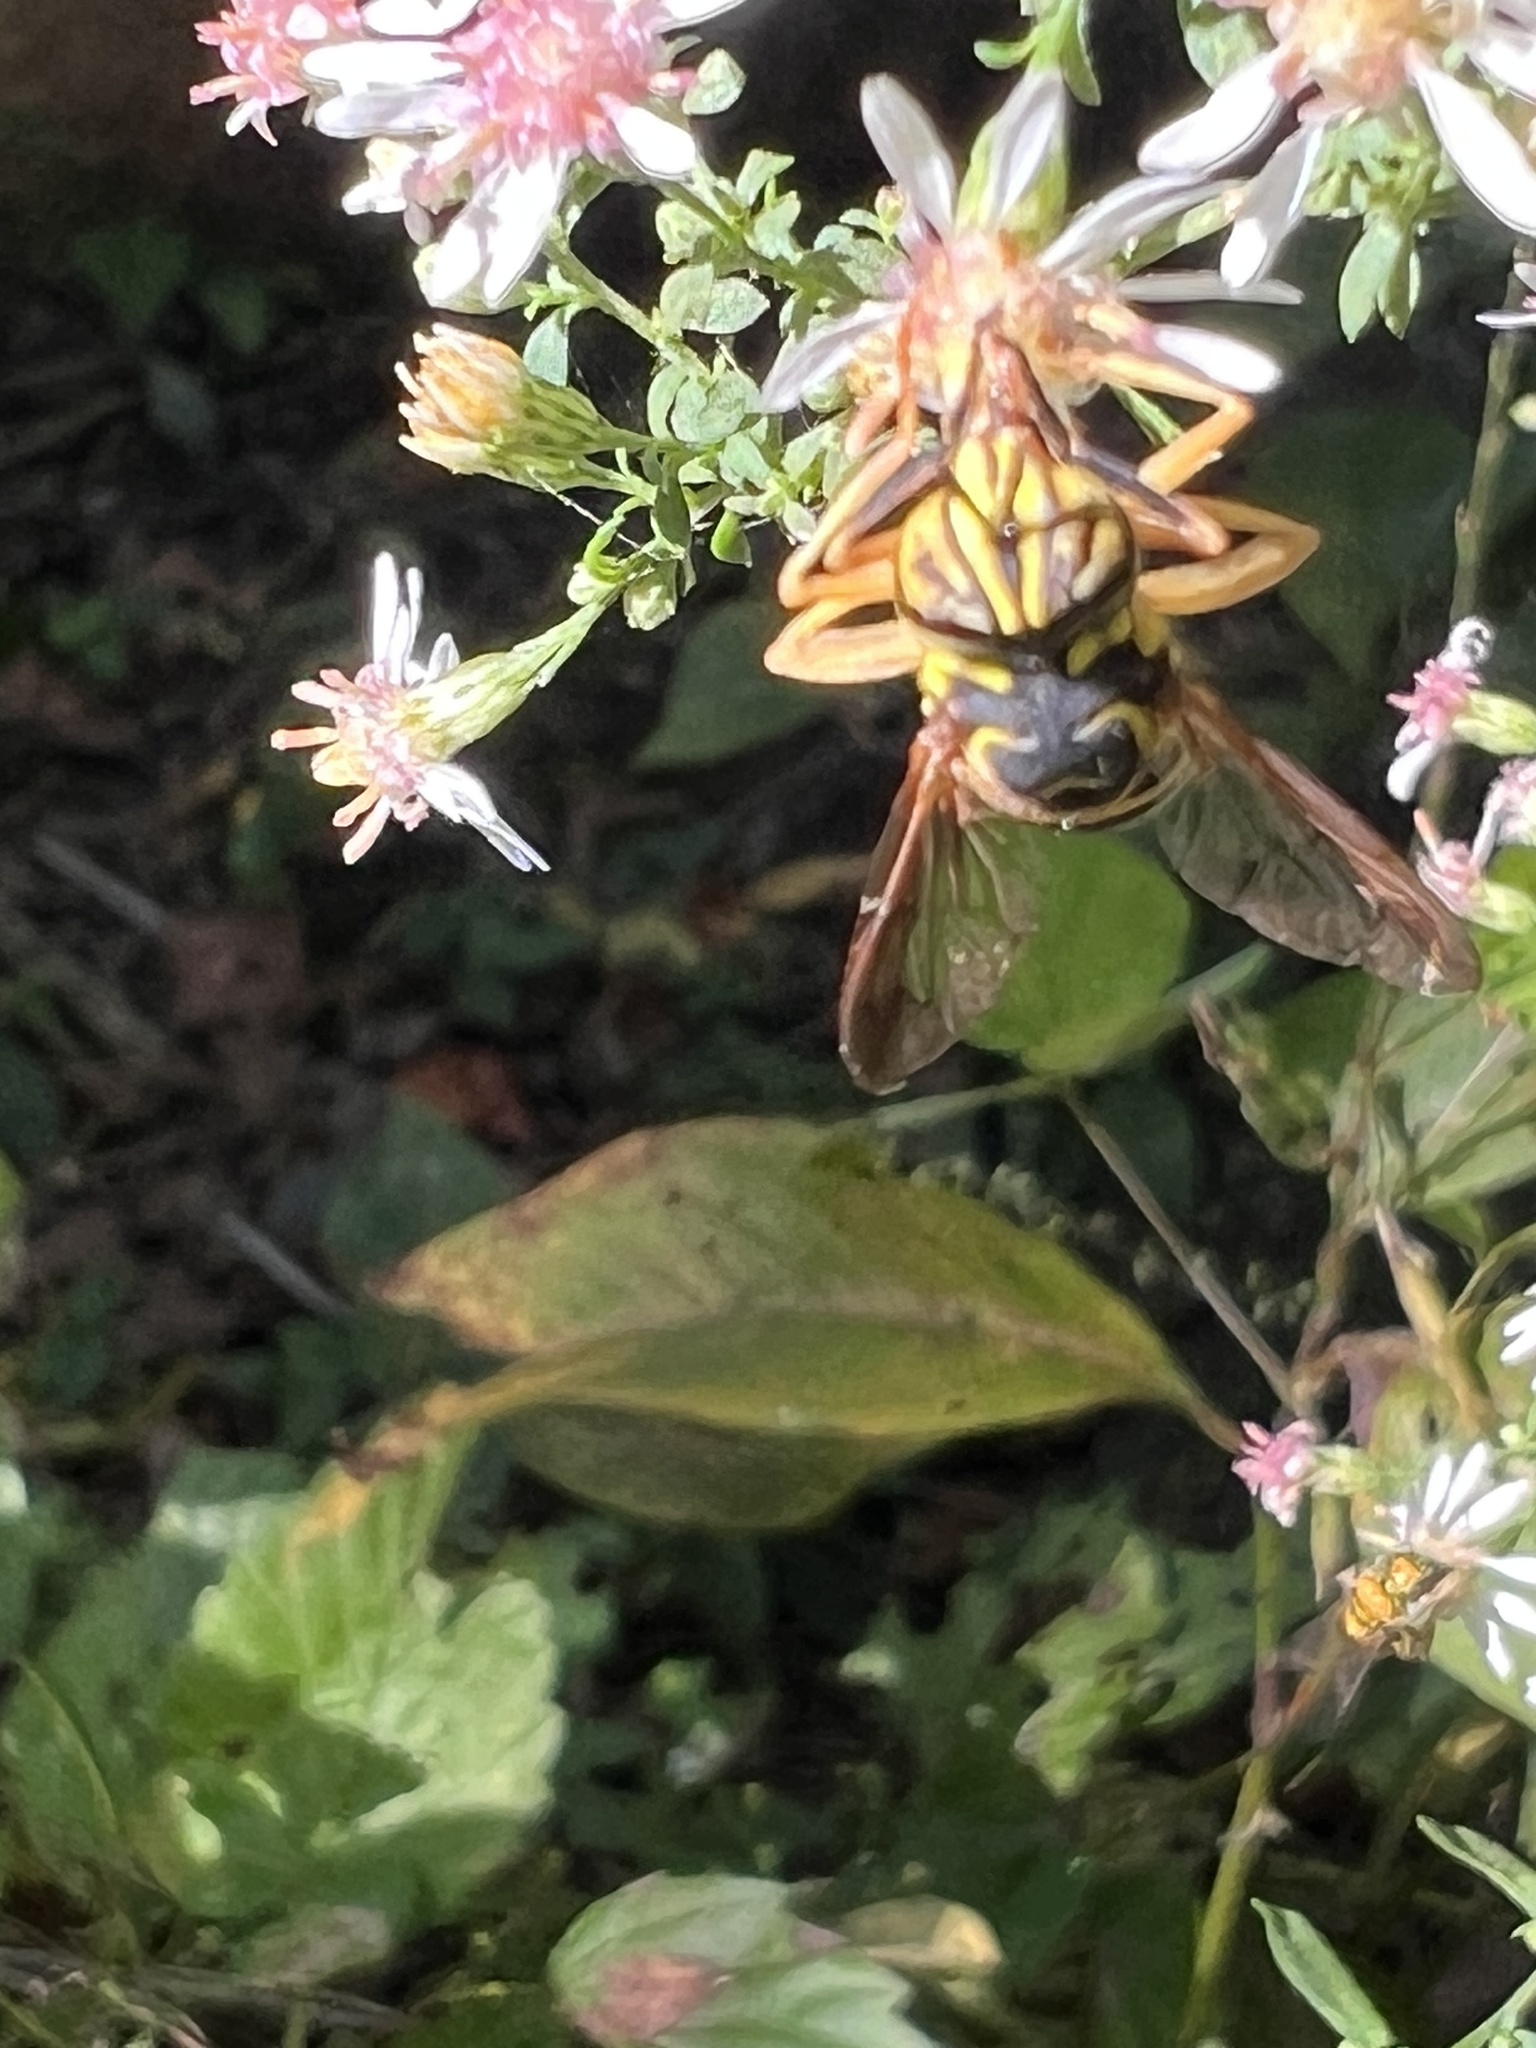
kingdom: Animalia
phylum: Arthropoda
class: Insecta
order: Diptera
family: Syrphidae
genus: Spilomyia
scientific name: Spilomyia longicornis
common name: Eastern hornet fly
